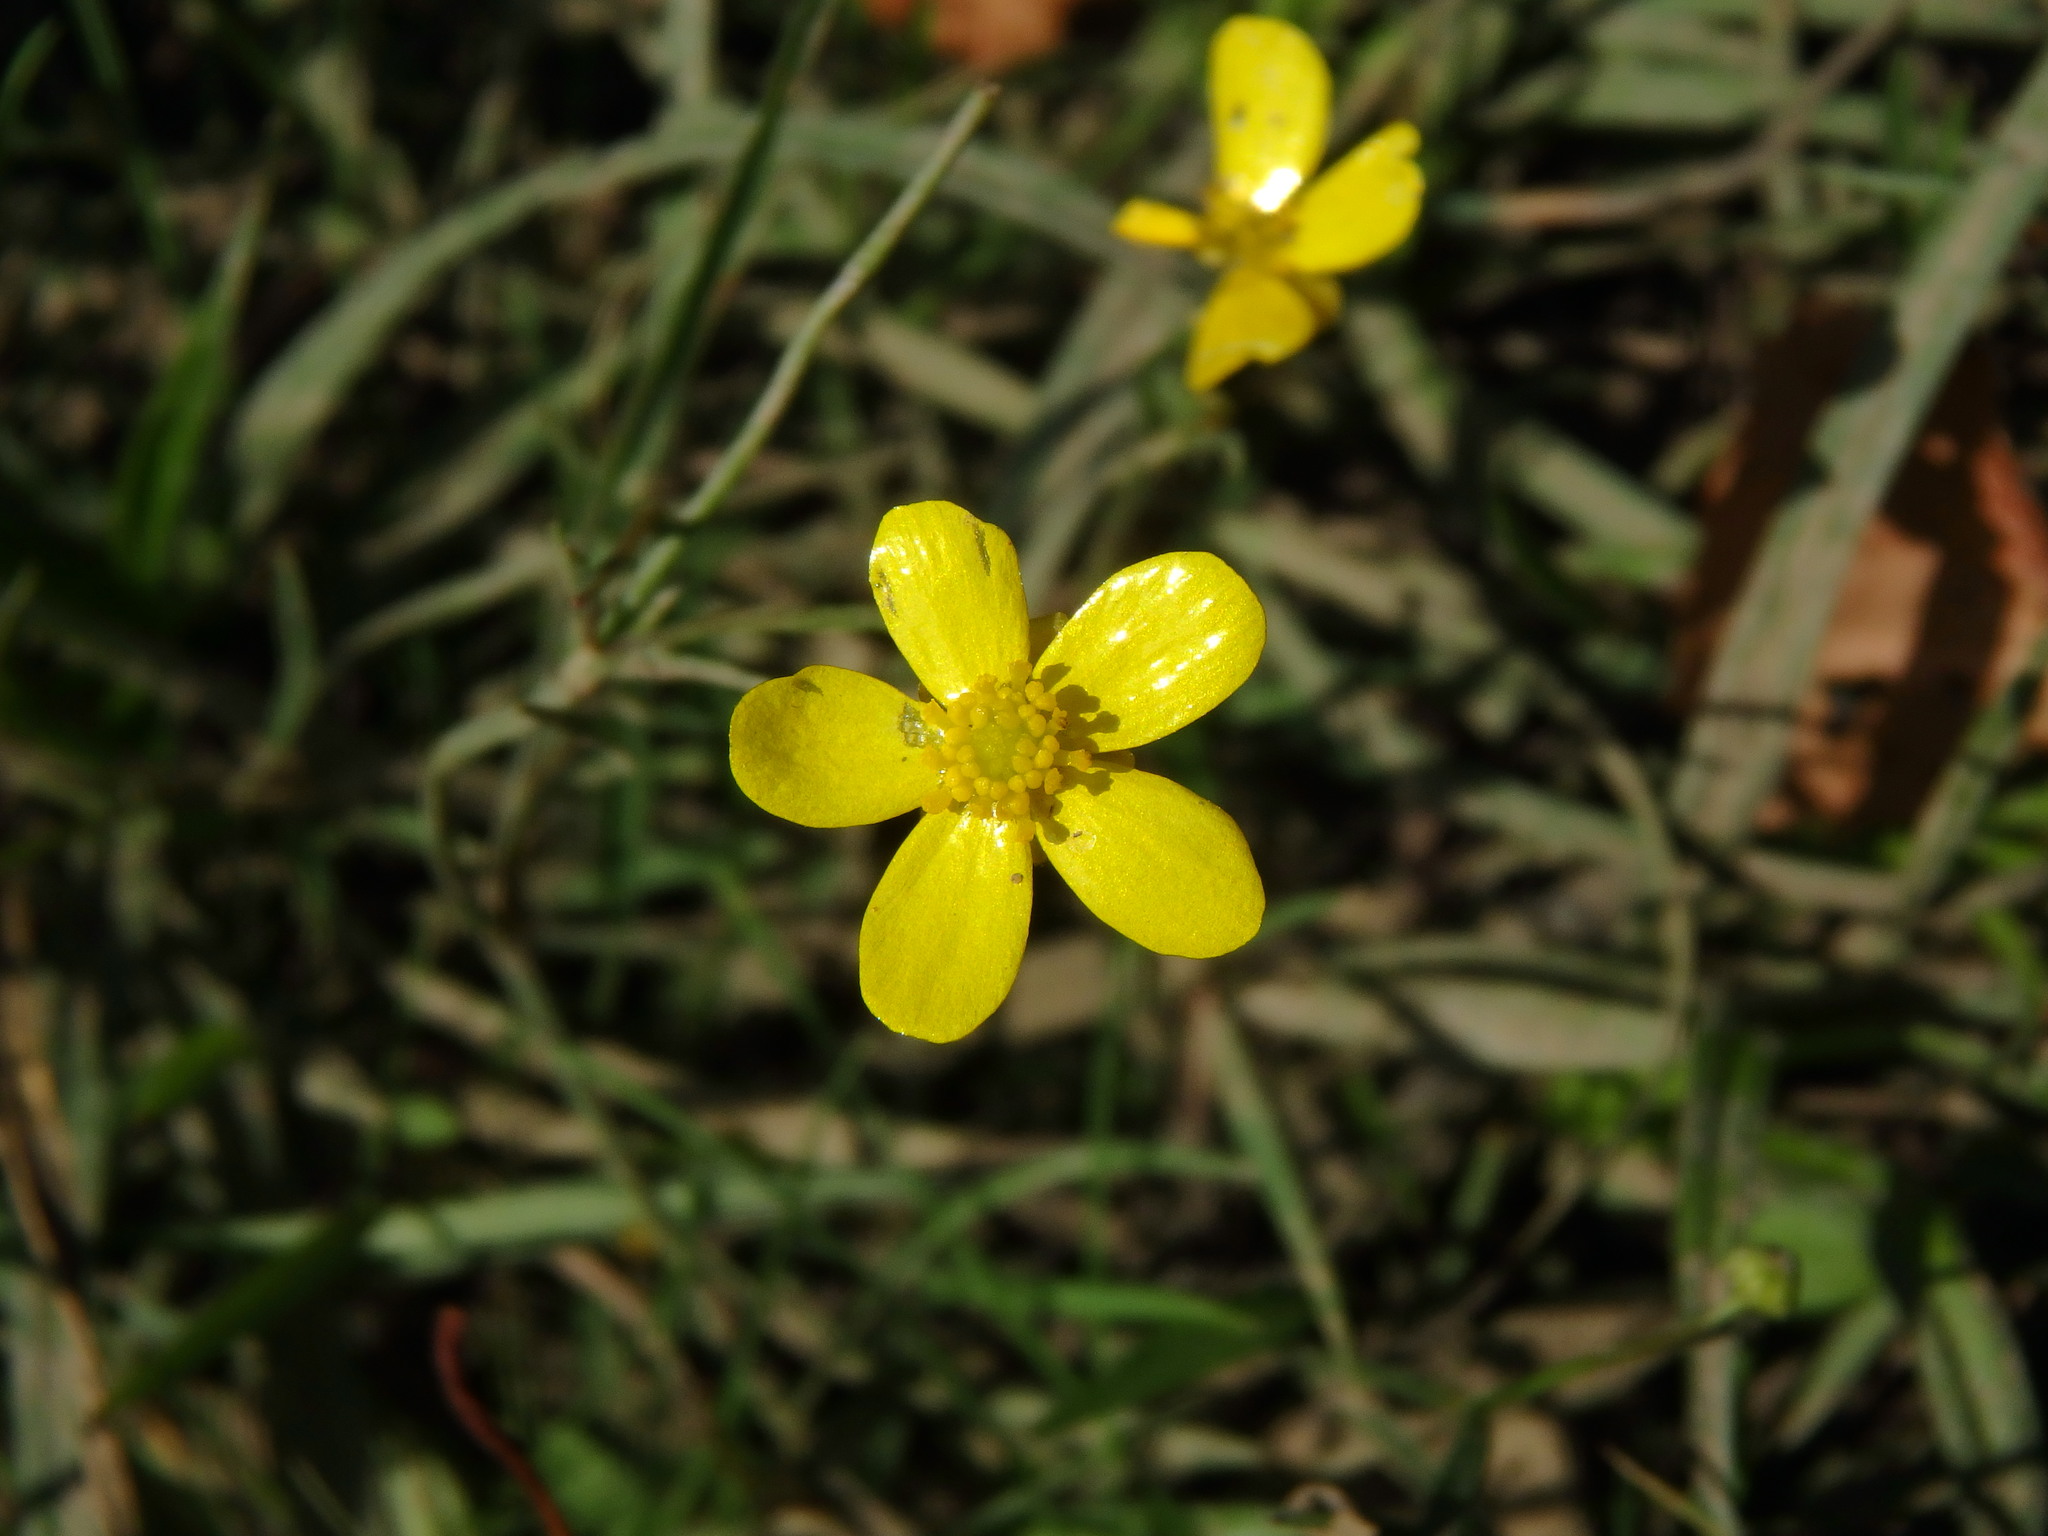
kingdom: Plantae
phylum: Tracheophyta
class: Magnoliopsida
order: Ranunculales
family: Ranunculaceae
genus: Ranunculus
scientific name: Ranunculus flammula
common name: Lesser spearwort
